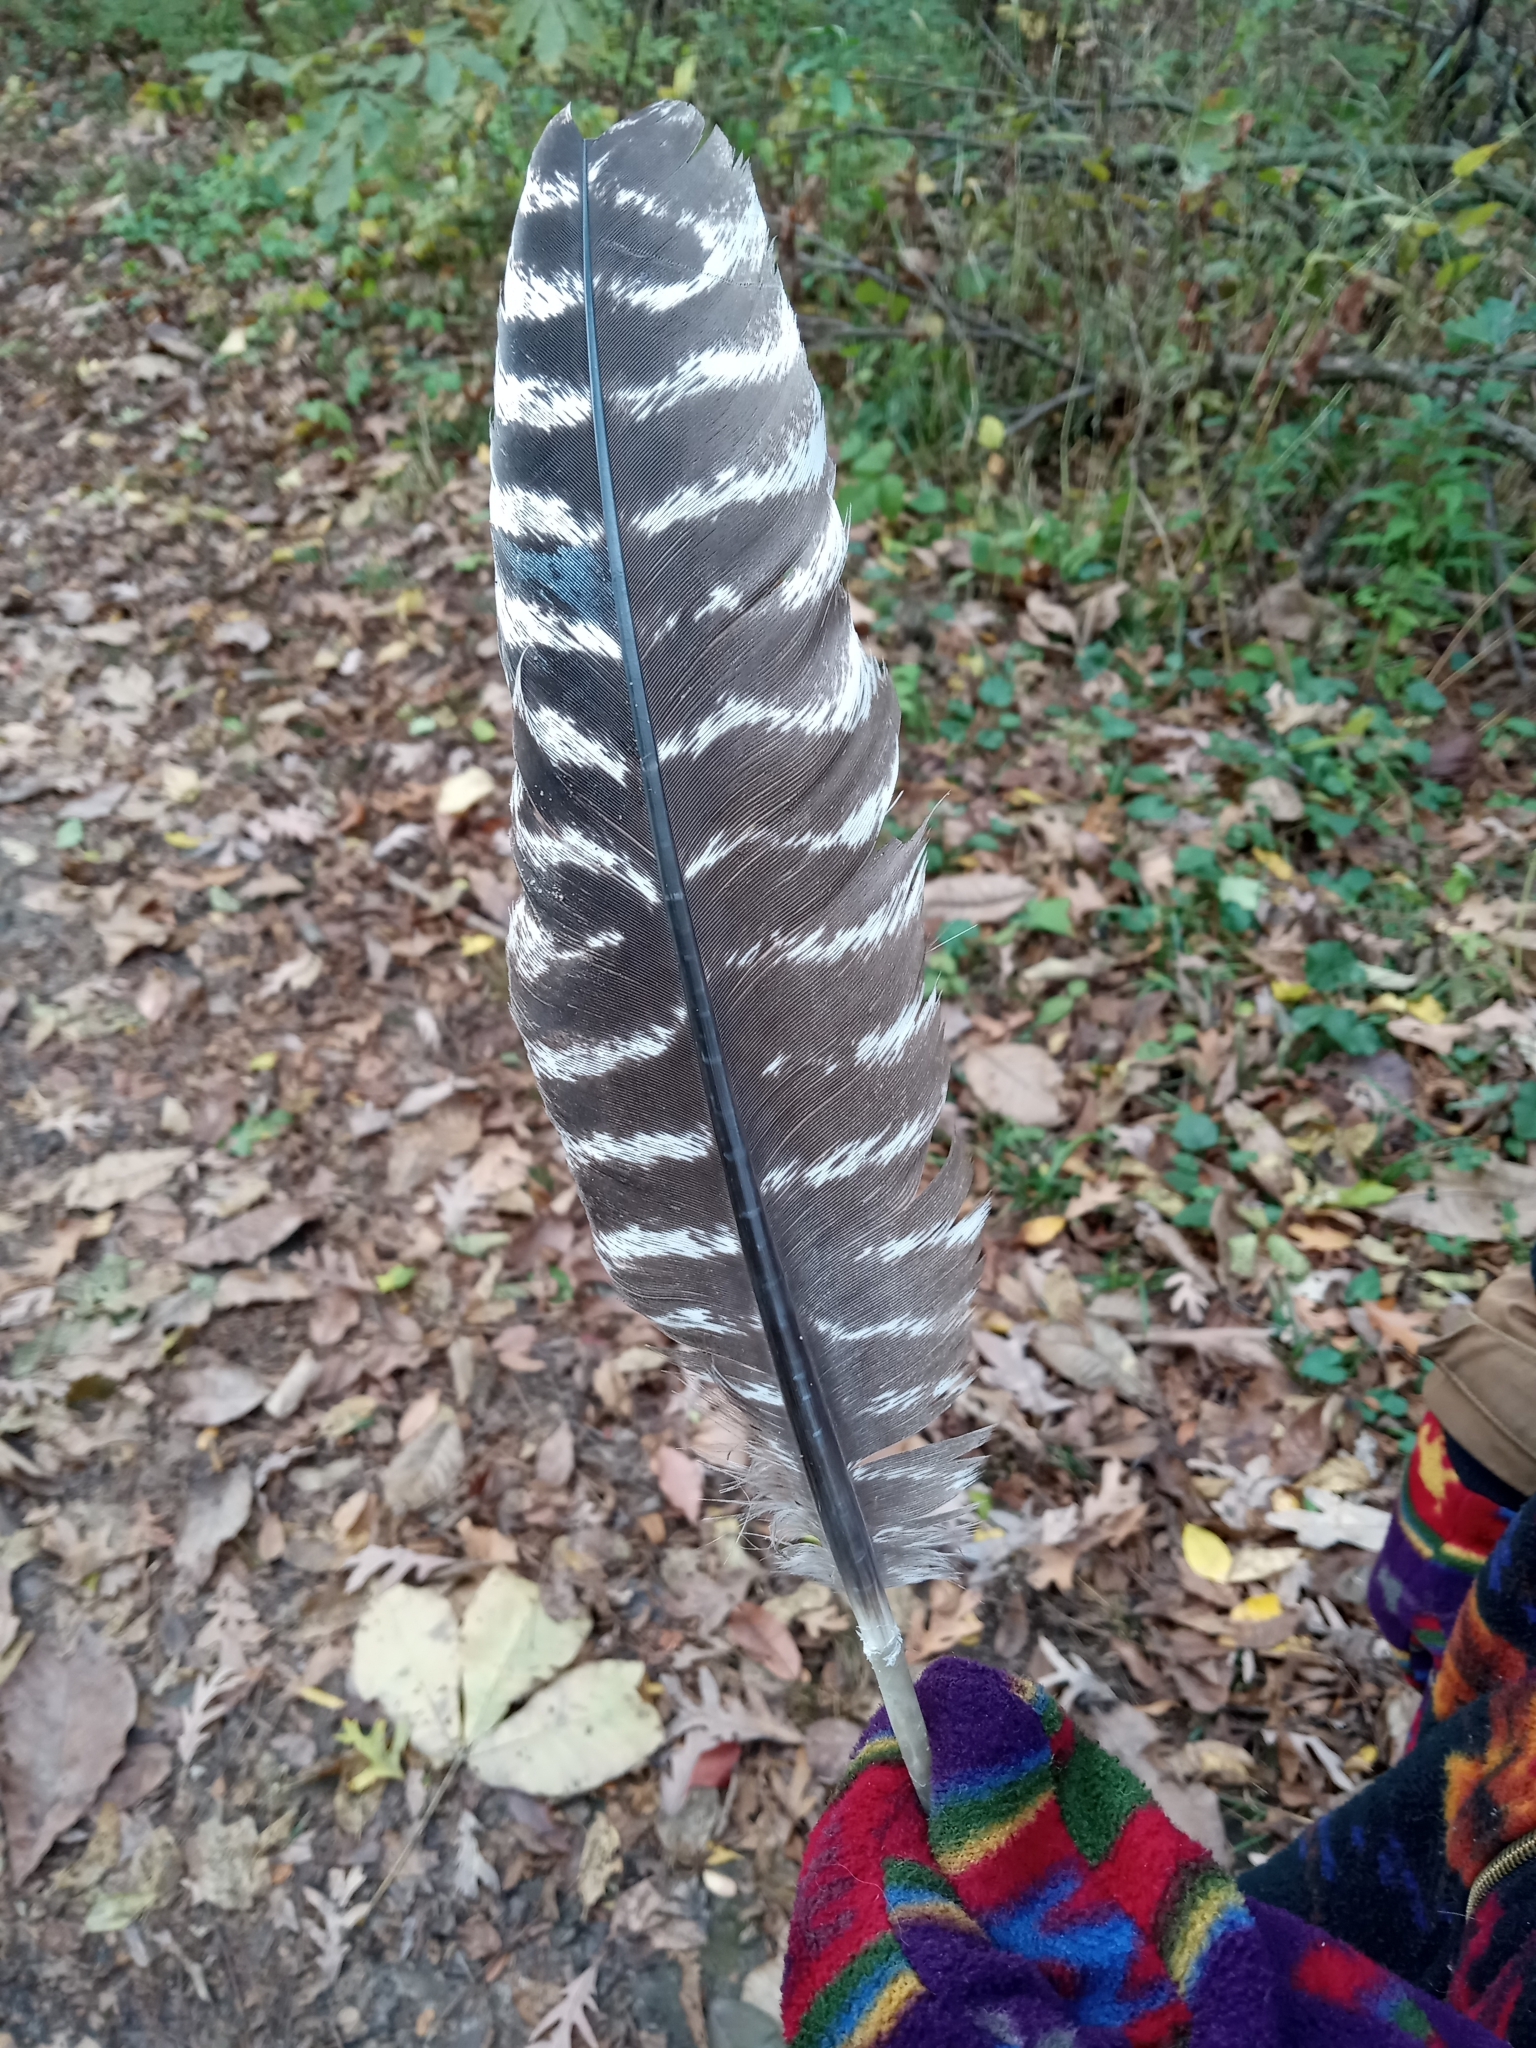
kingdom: Animalia
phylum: Chordata
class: Aves
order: Galliformes
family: Phasianidae
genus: Meleagris
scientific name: Meleagris gallopavo
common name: Wild turkey
